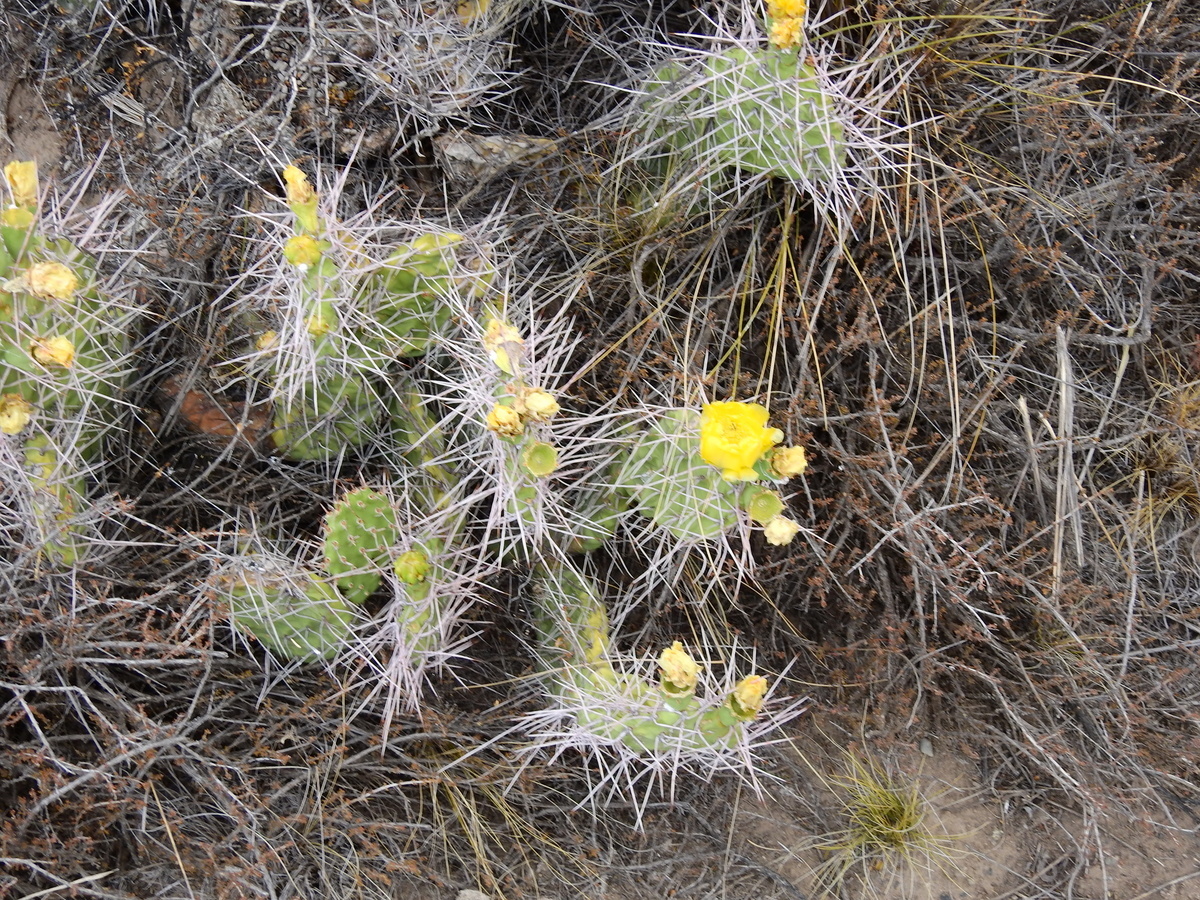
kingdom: Plantae
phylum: Tracheophyta
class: Magnoliopsida
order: Caryophyllales
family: Cactaceae
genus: Opuntia
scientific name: Opuntia sulphurea
